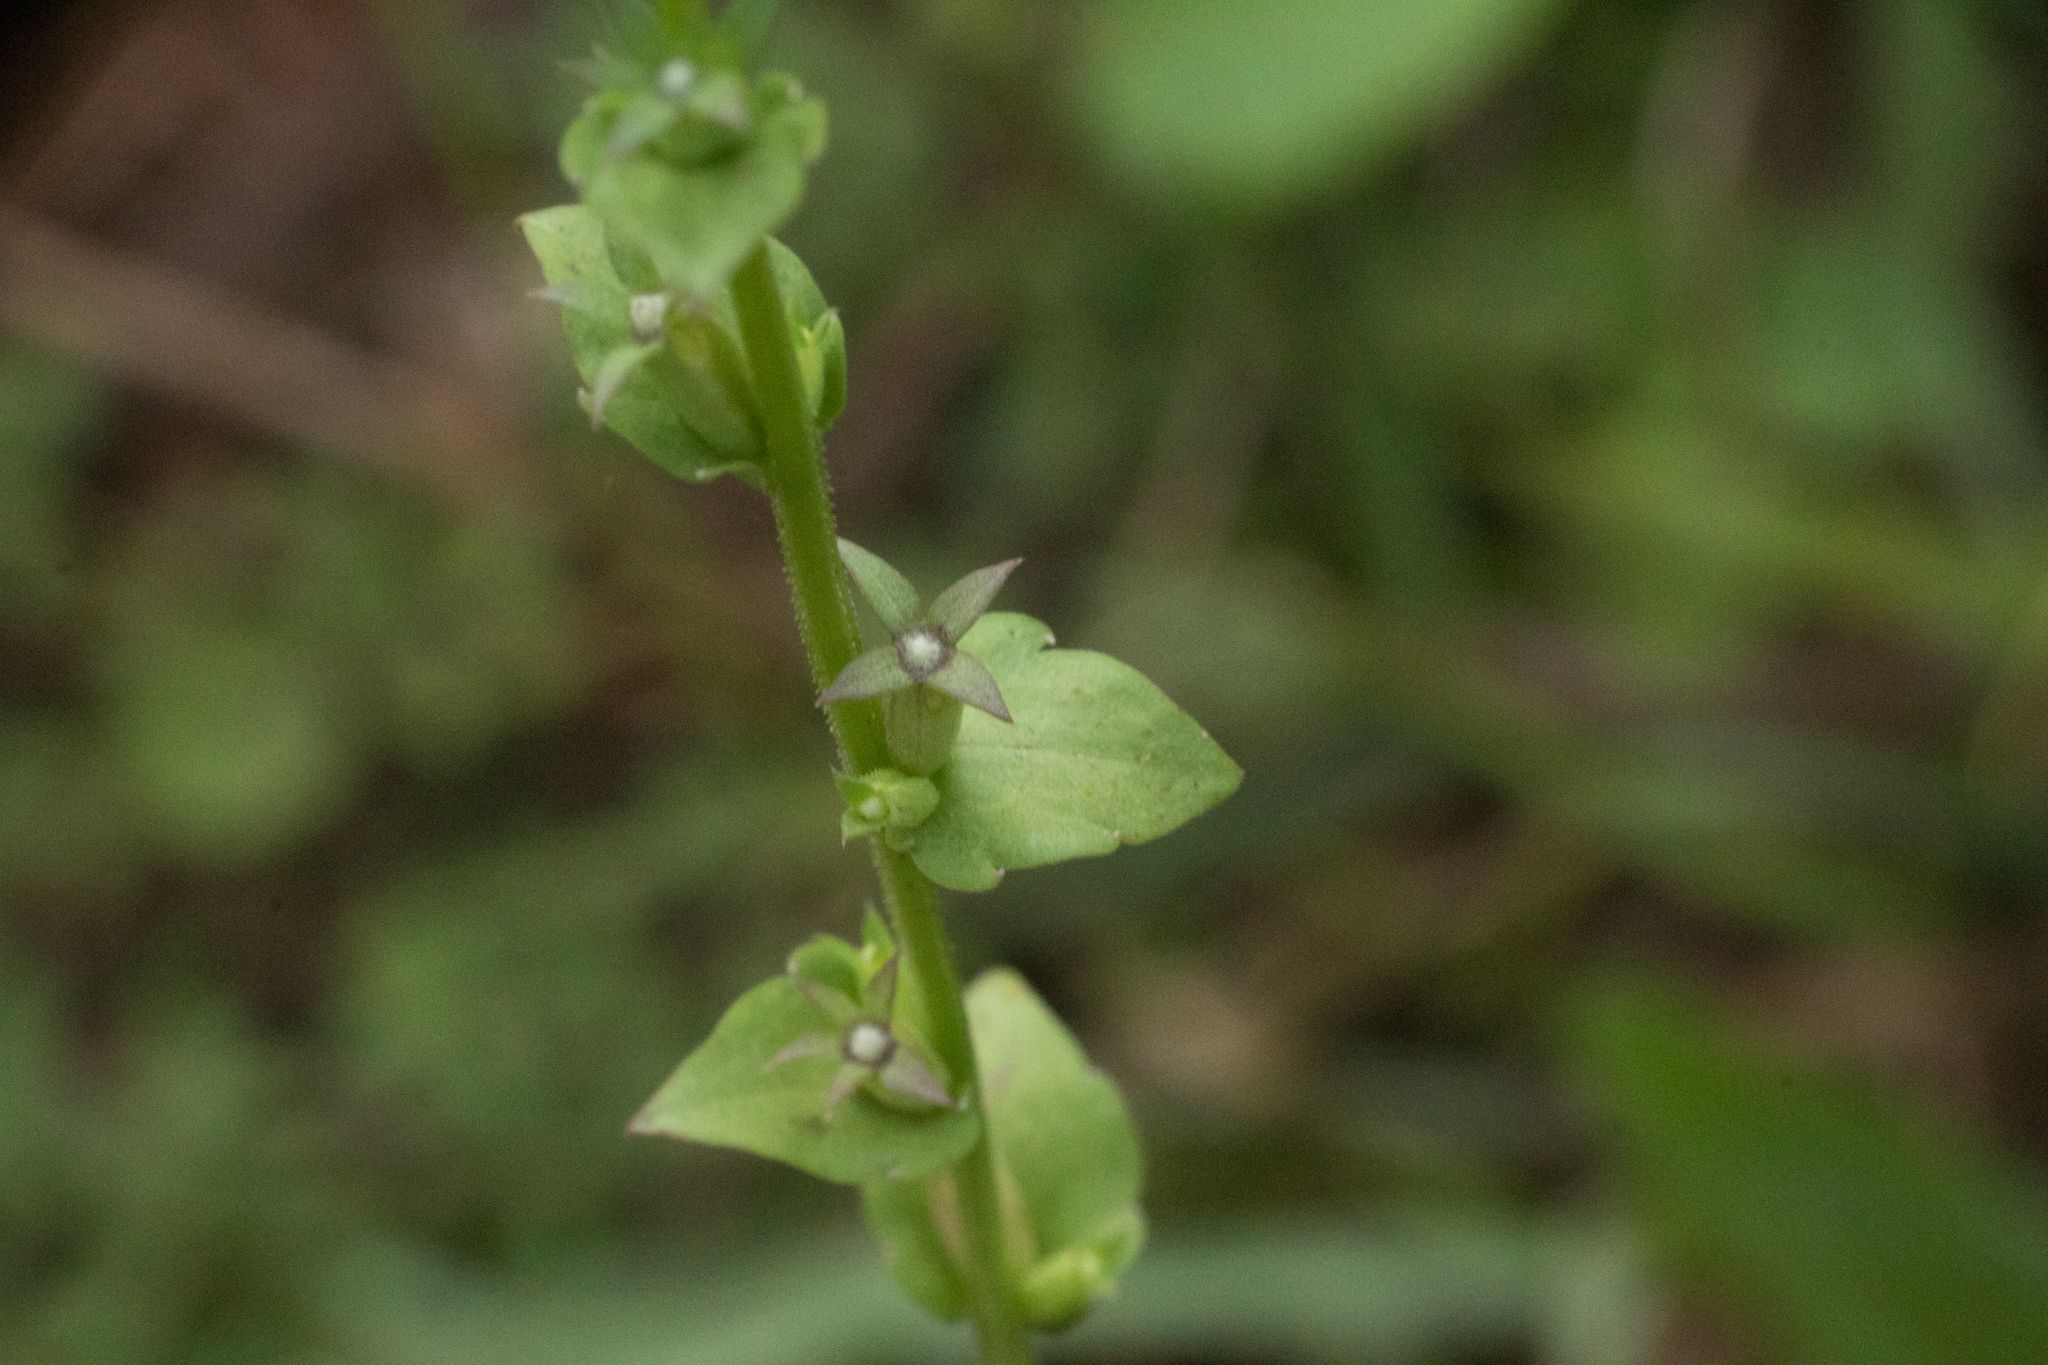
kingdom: Plantae
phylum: Tracheophyta
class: Magnoliopsida
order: Asterales
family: Campanulaceae
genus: Triodanis
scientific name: Triodanis perfoliata
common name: Clasping venus' looking-glass
